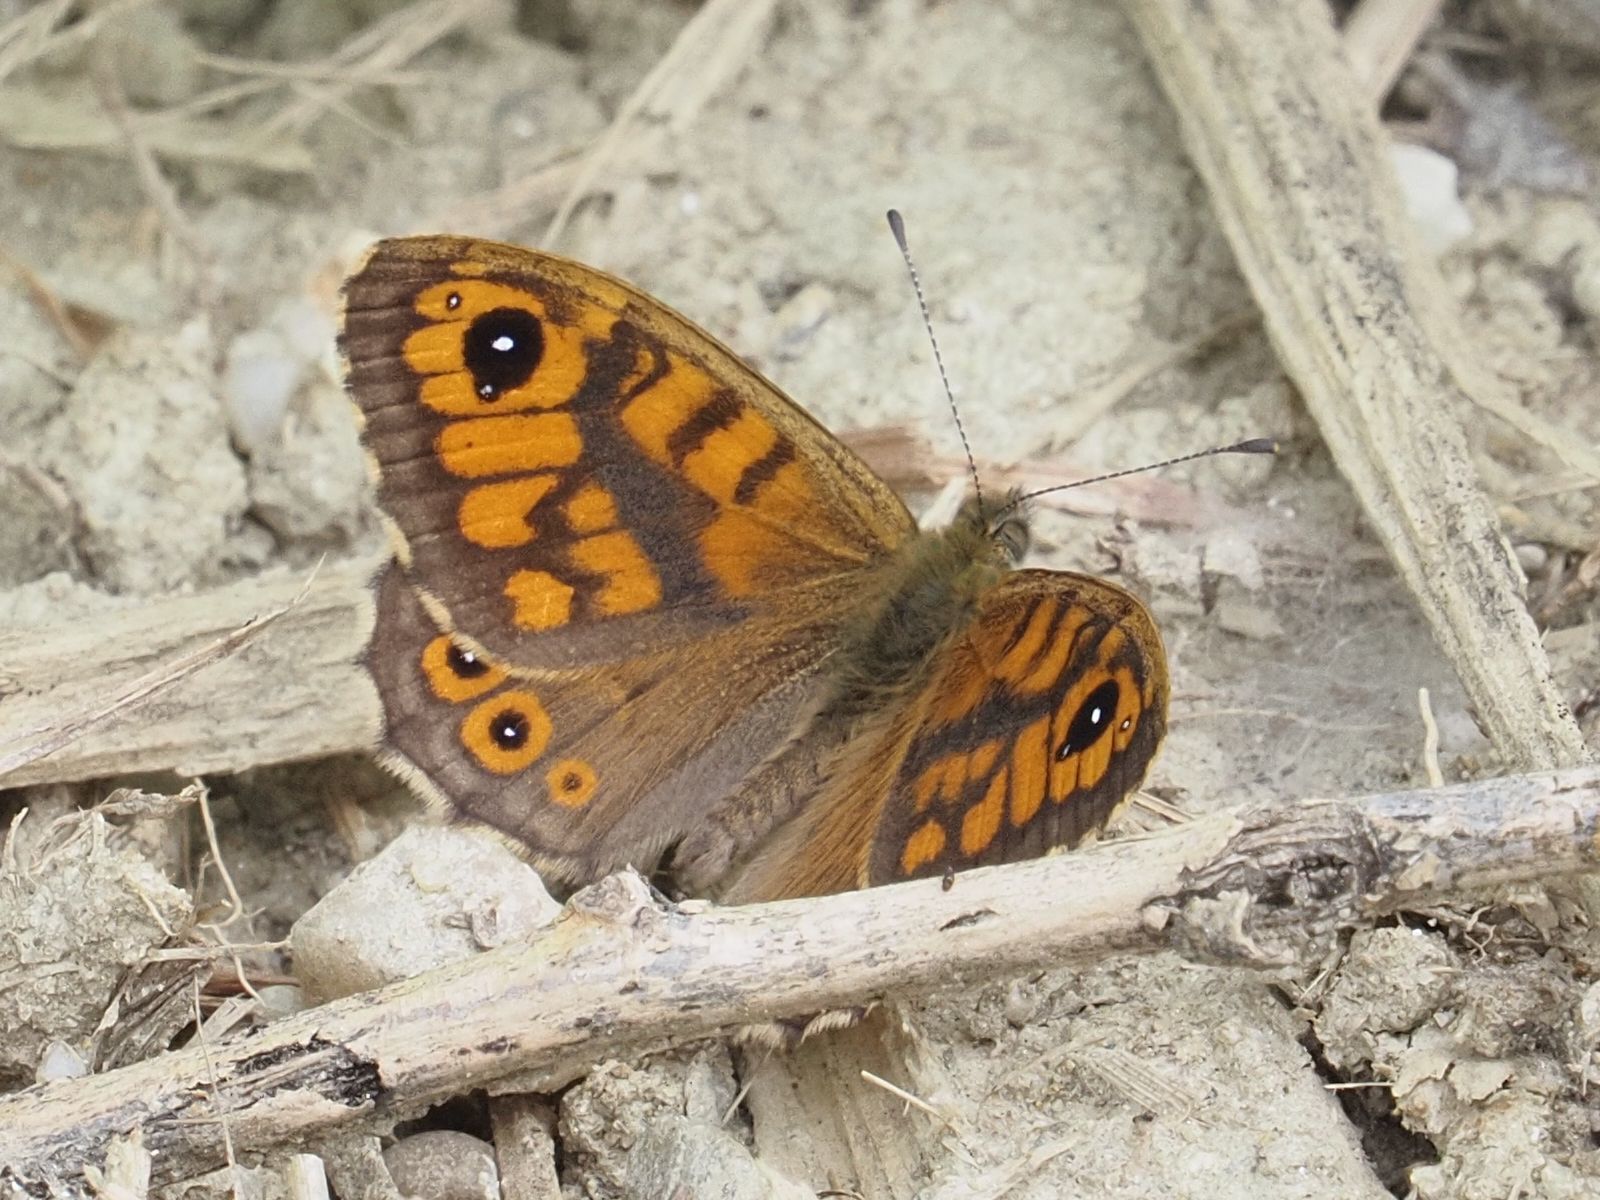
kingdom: Animalia
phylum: Arthropoda
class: Insecta
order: Lepidoptera
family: Nymphalidae
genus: Pararge
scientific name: Pararge Lasiommata megera
